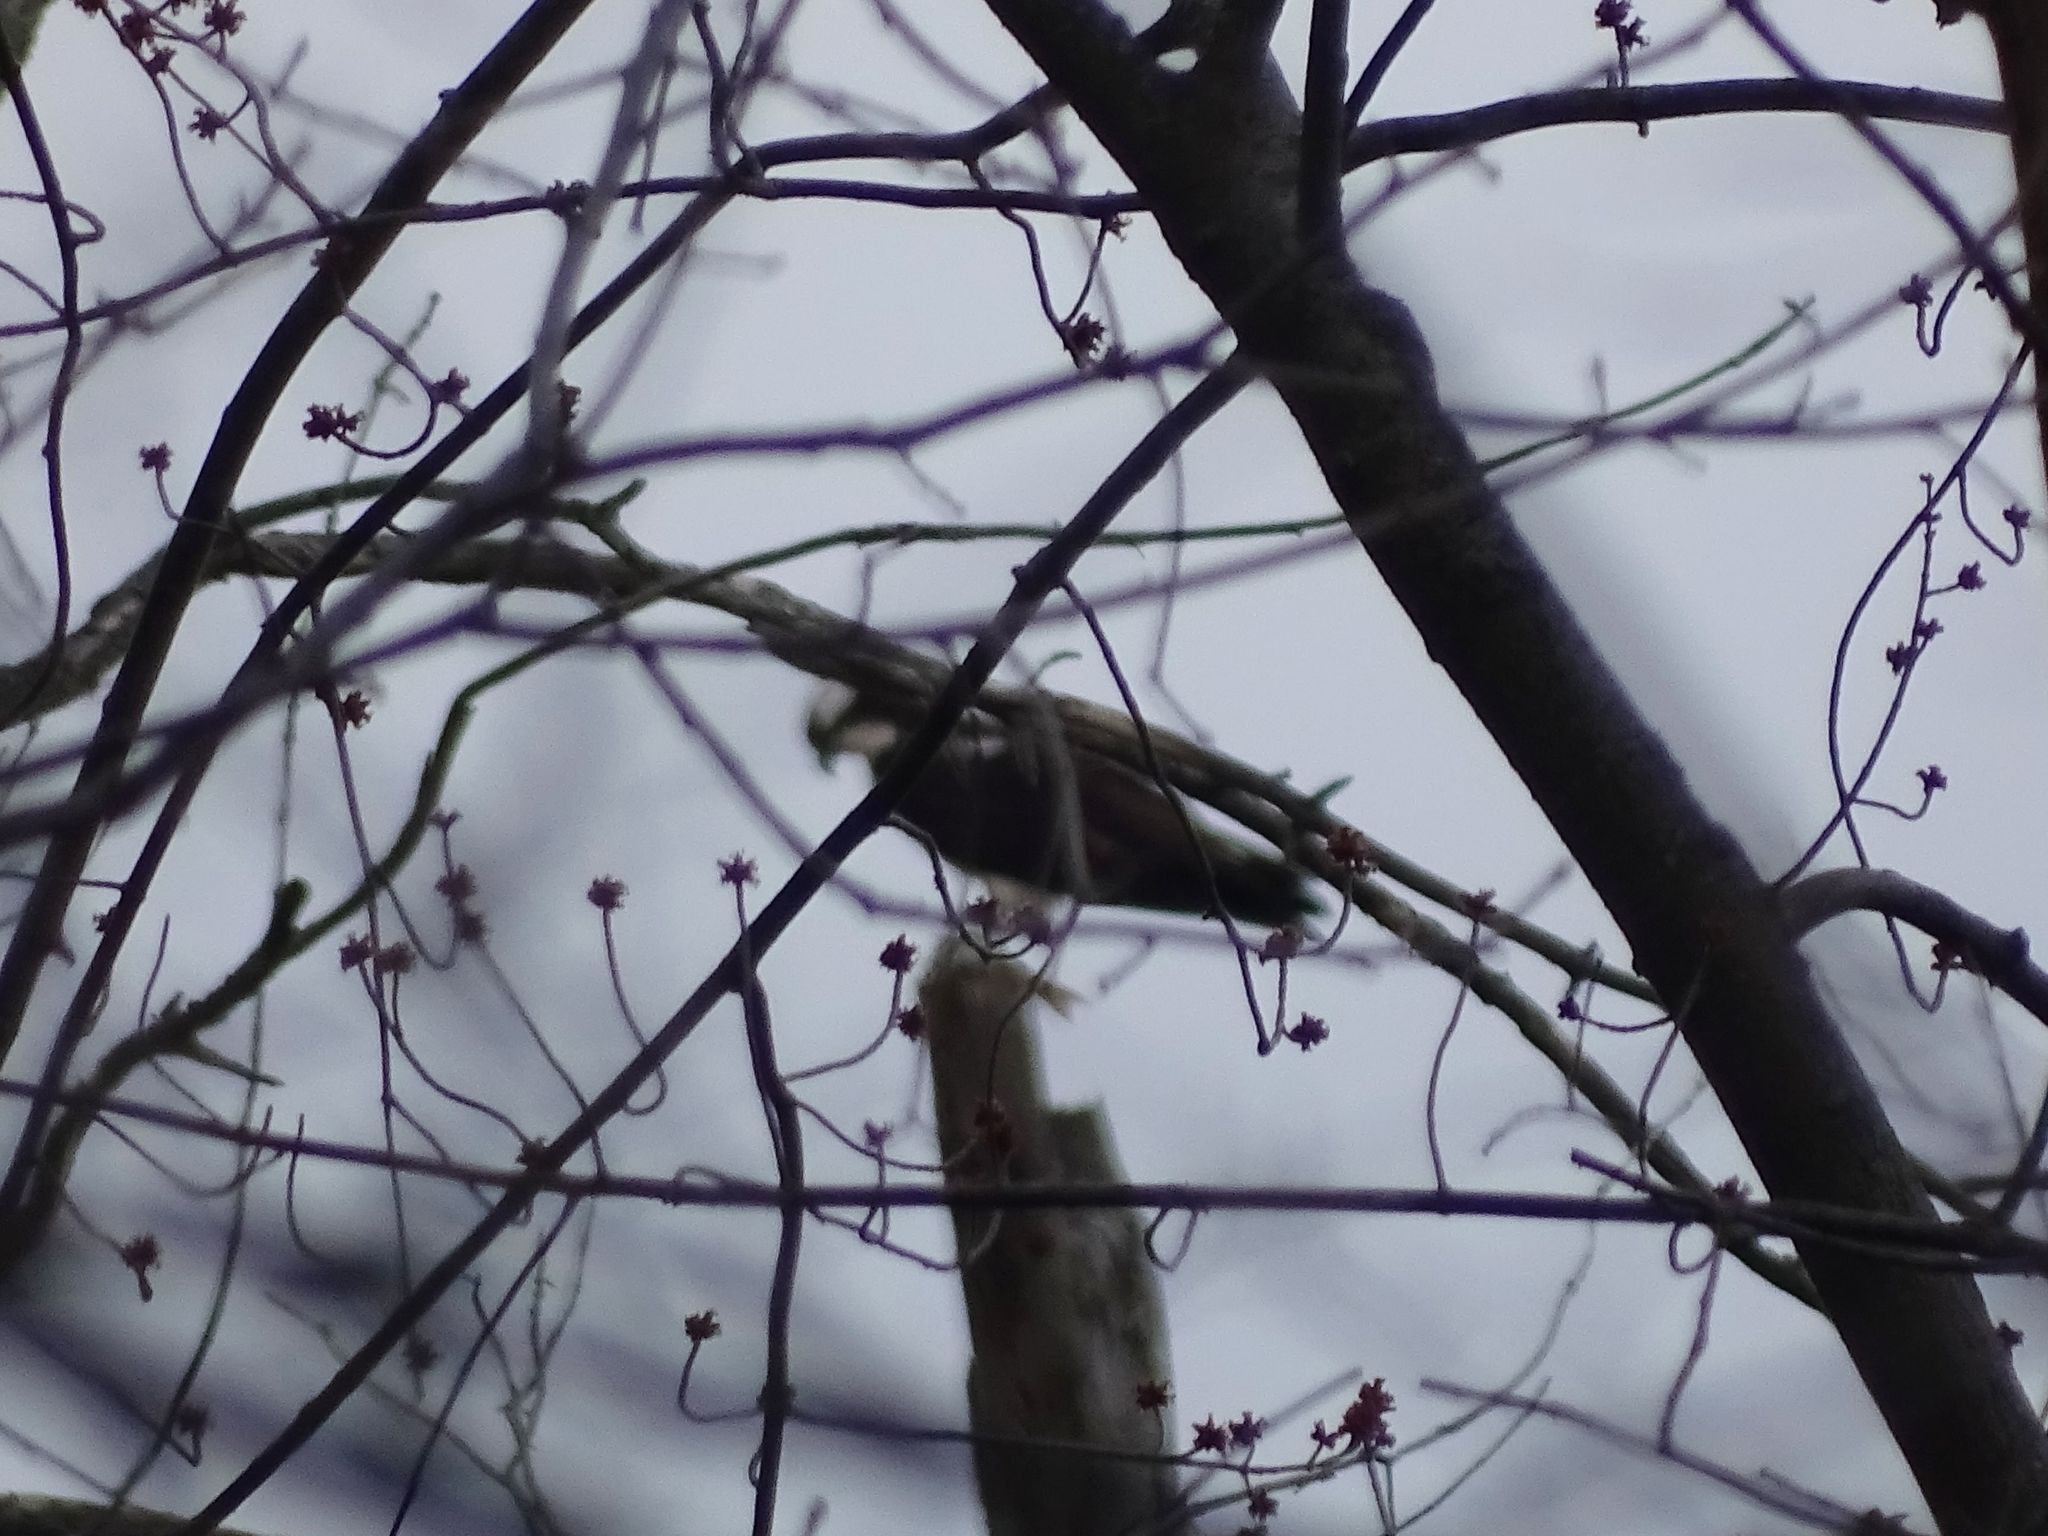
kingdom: Animalia
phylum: Chordata
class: Aves
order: Accipitriformes
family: Pandionidae
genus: Pandion
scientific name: Pandion haliaetus
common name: Osprey
